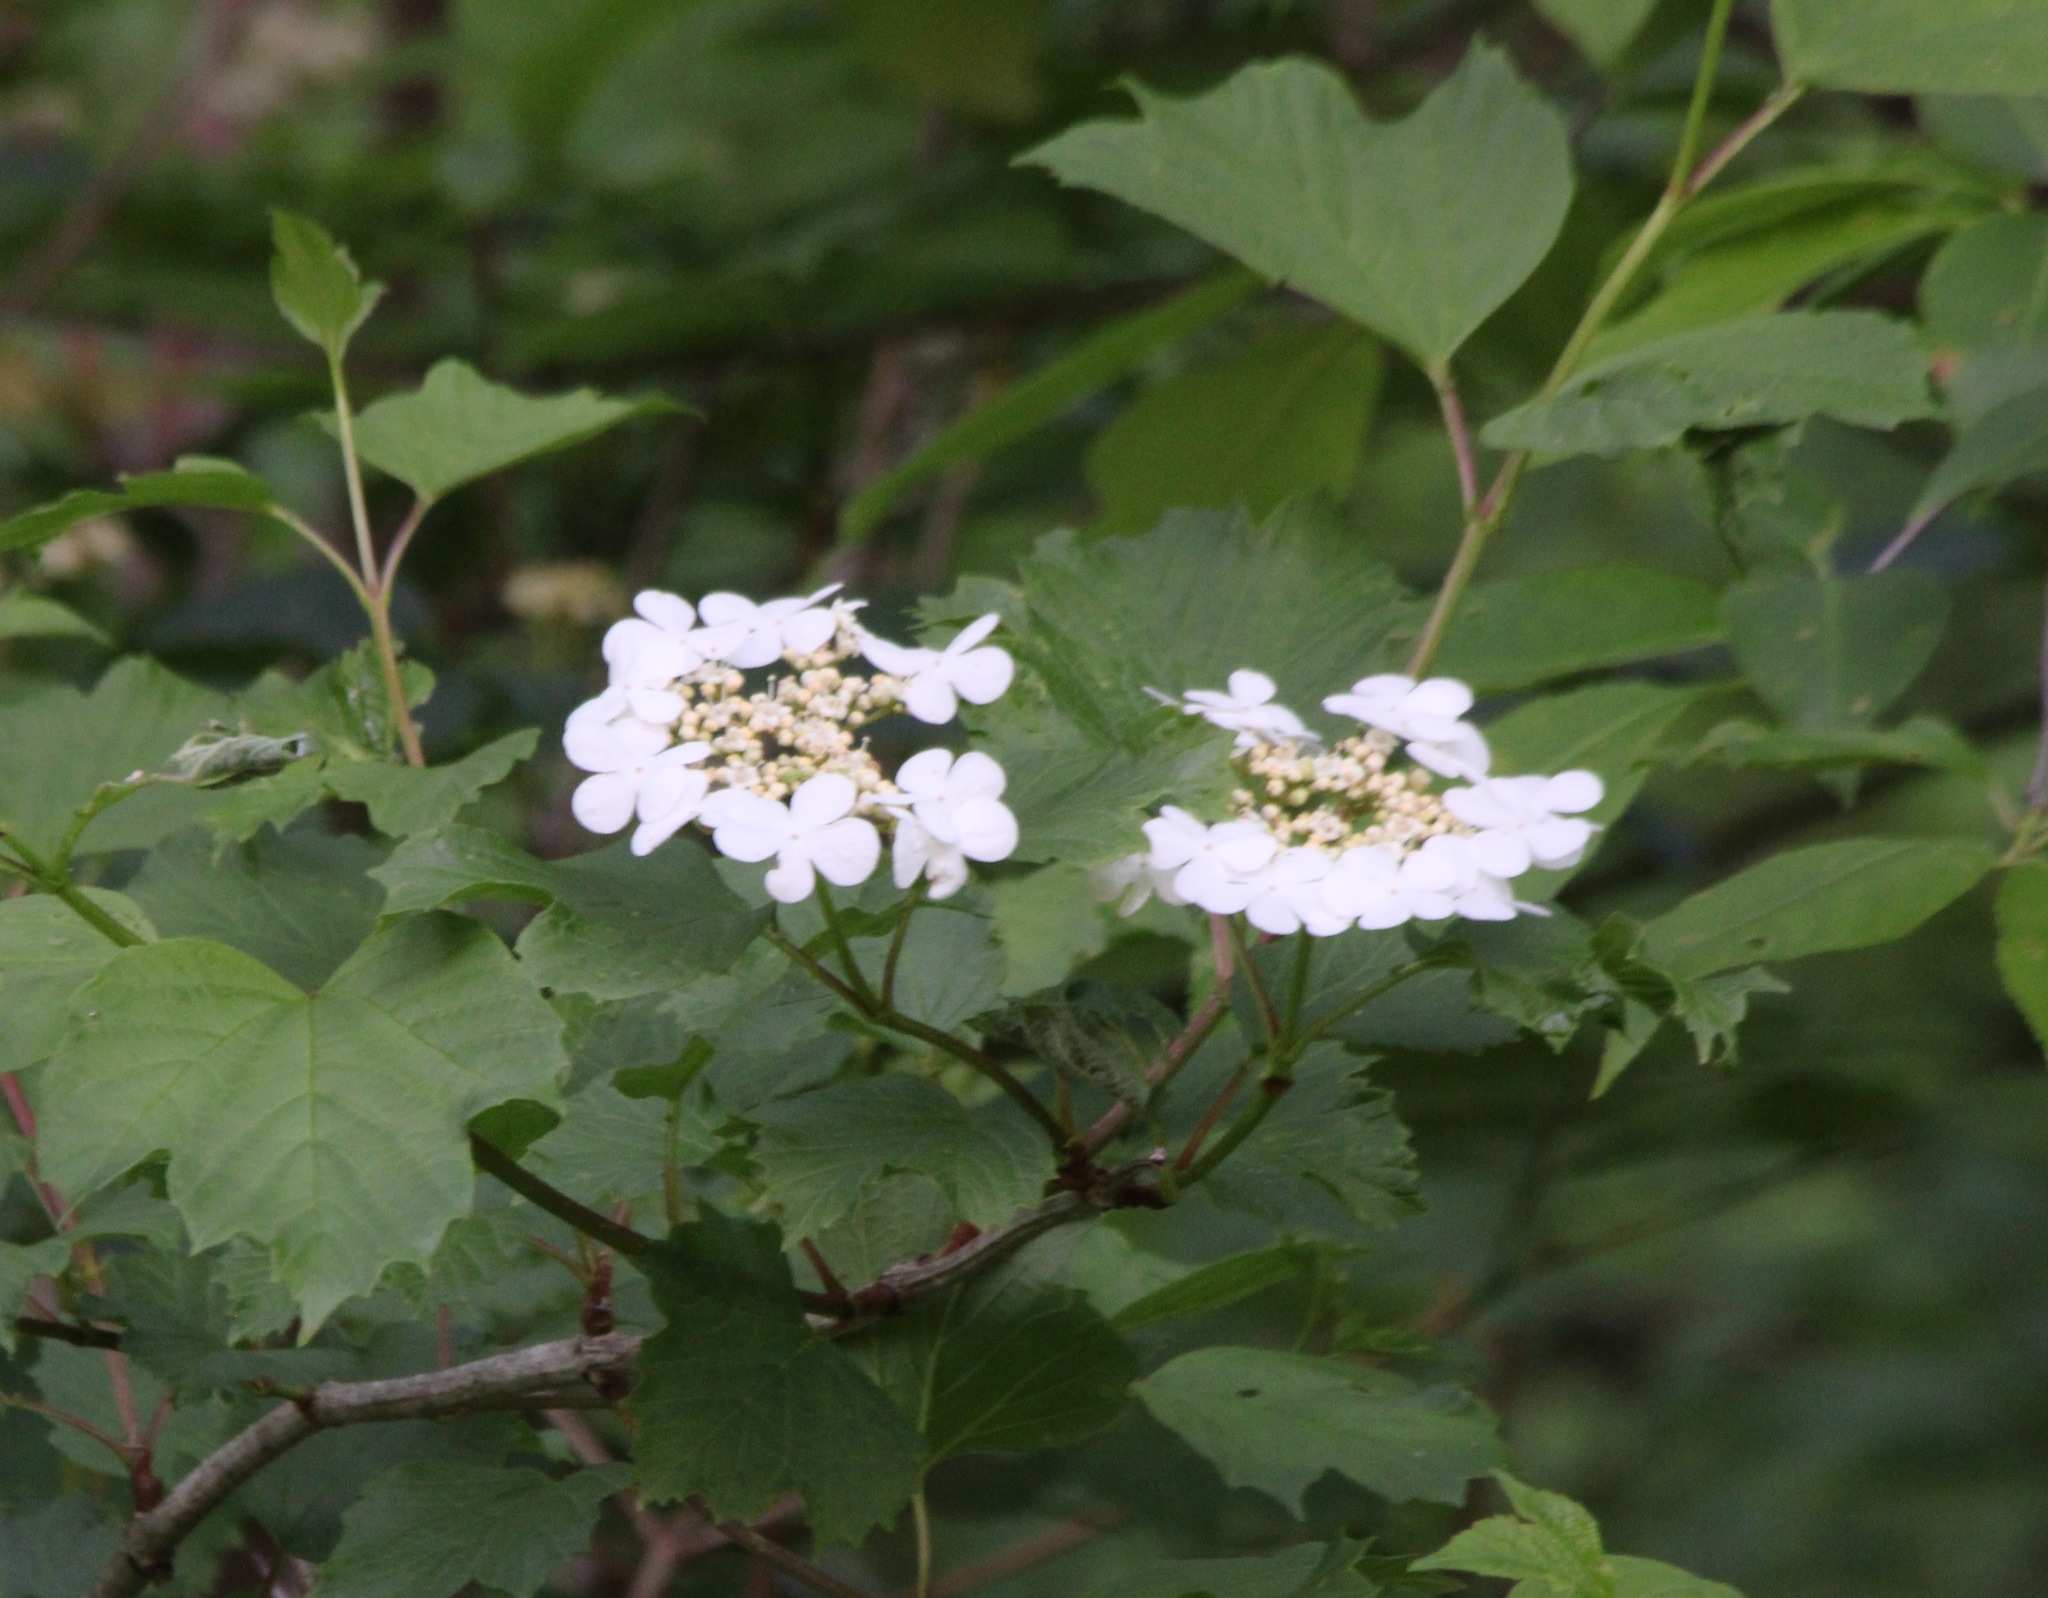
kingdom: Plantae
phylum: Tracheophyta
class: Magnoliopsida
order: Dipsacales
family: Viburnaceae
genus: Viburnum
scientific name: Viburnum opulus
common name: Guelder-rose
